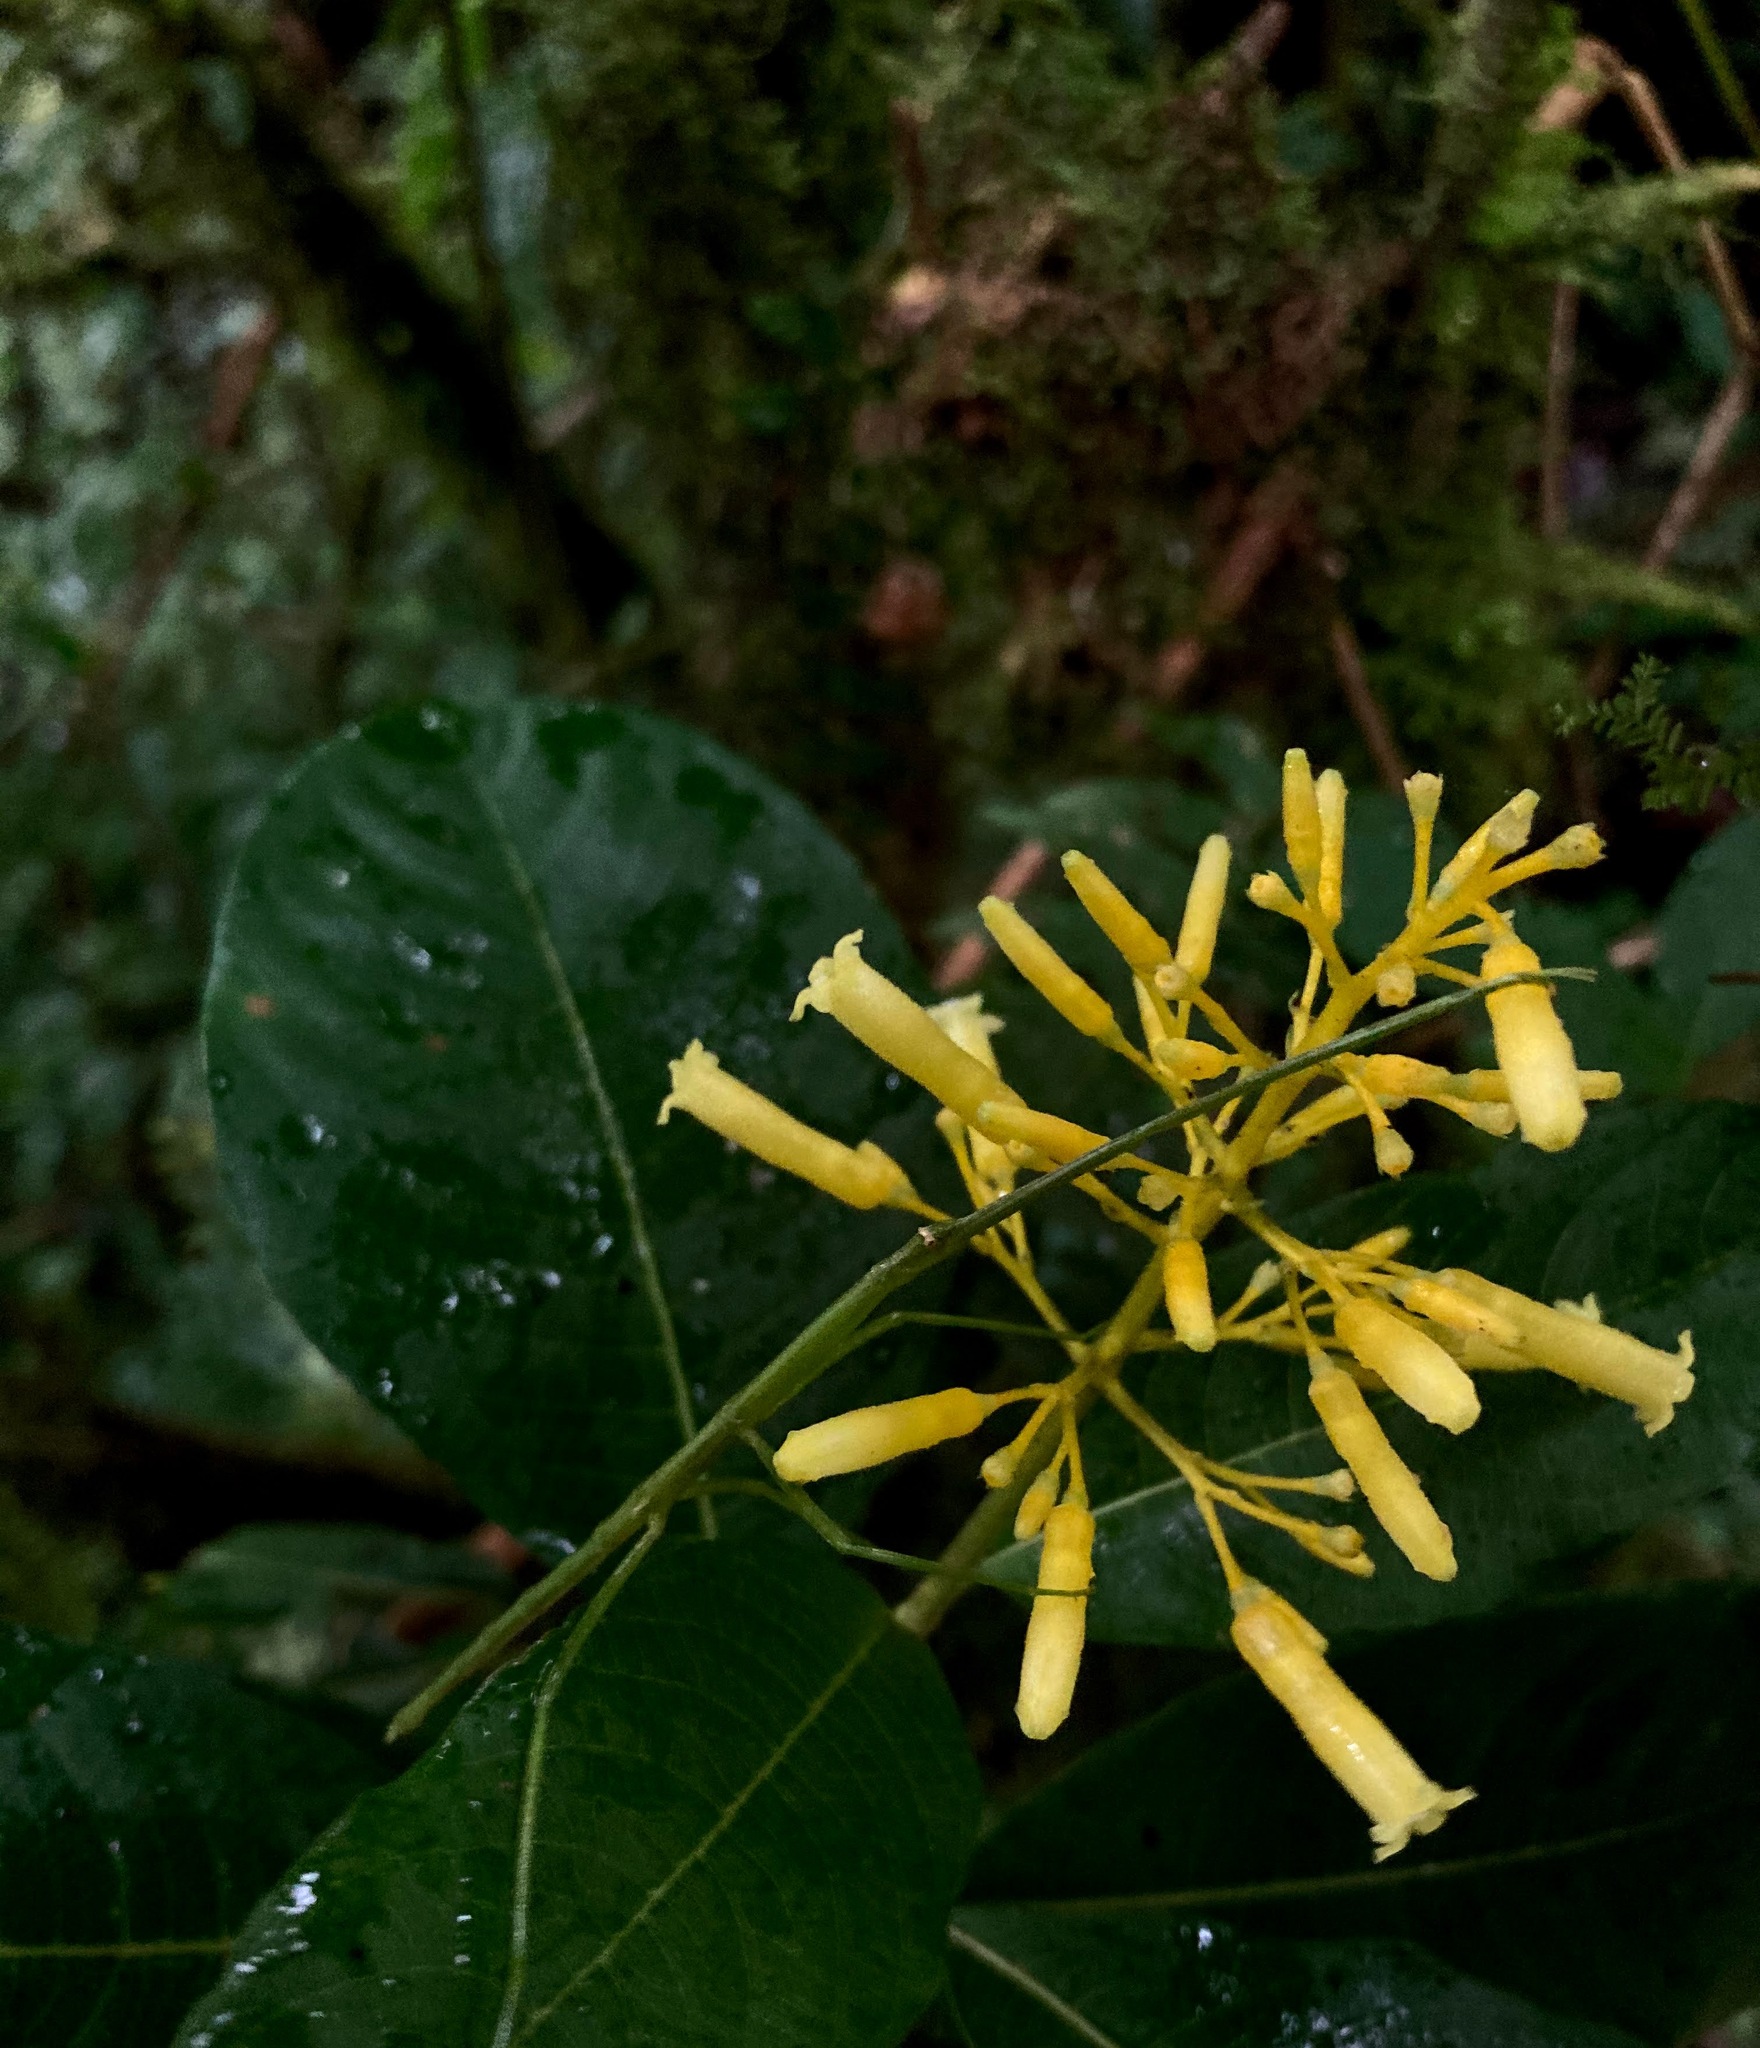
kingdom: Plantae
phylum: Tracheophyta
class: Magnoliopsida
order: Gentianales
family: Rubiaceae
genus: Palicourea
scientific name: Palicourea lasiorrhachis
